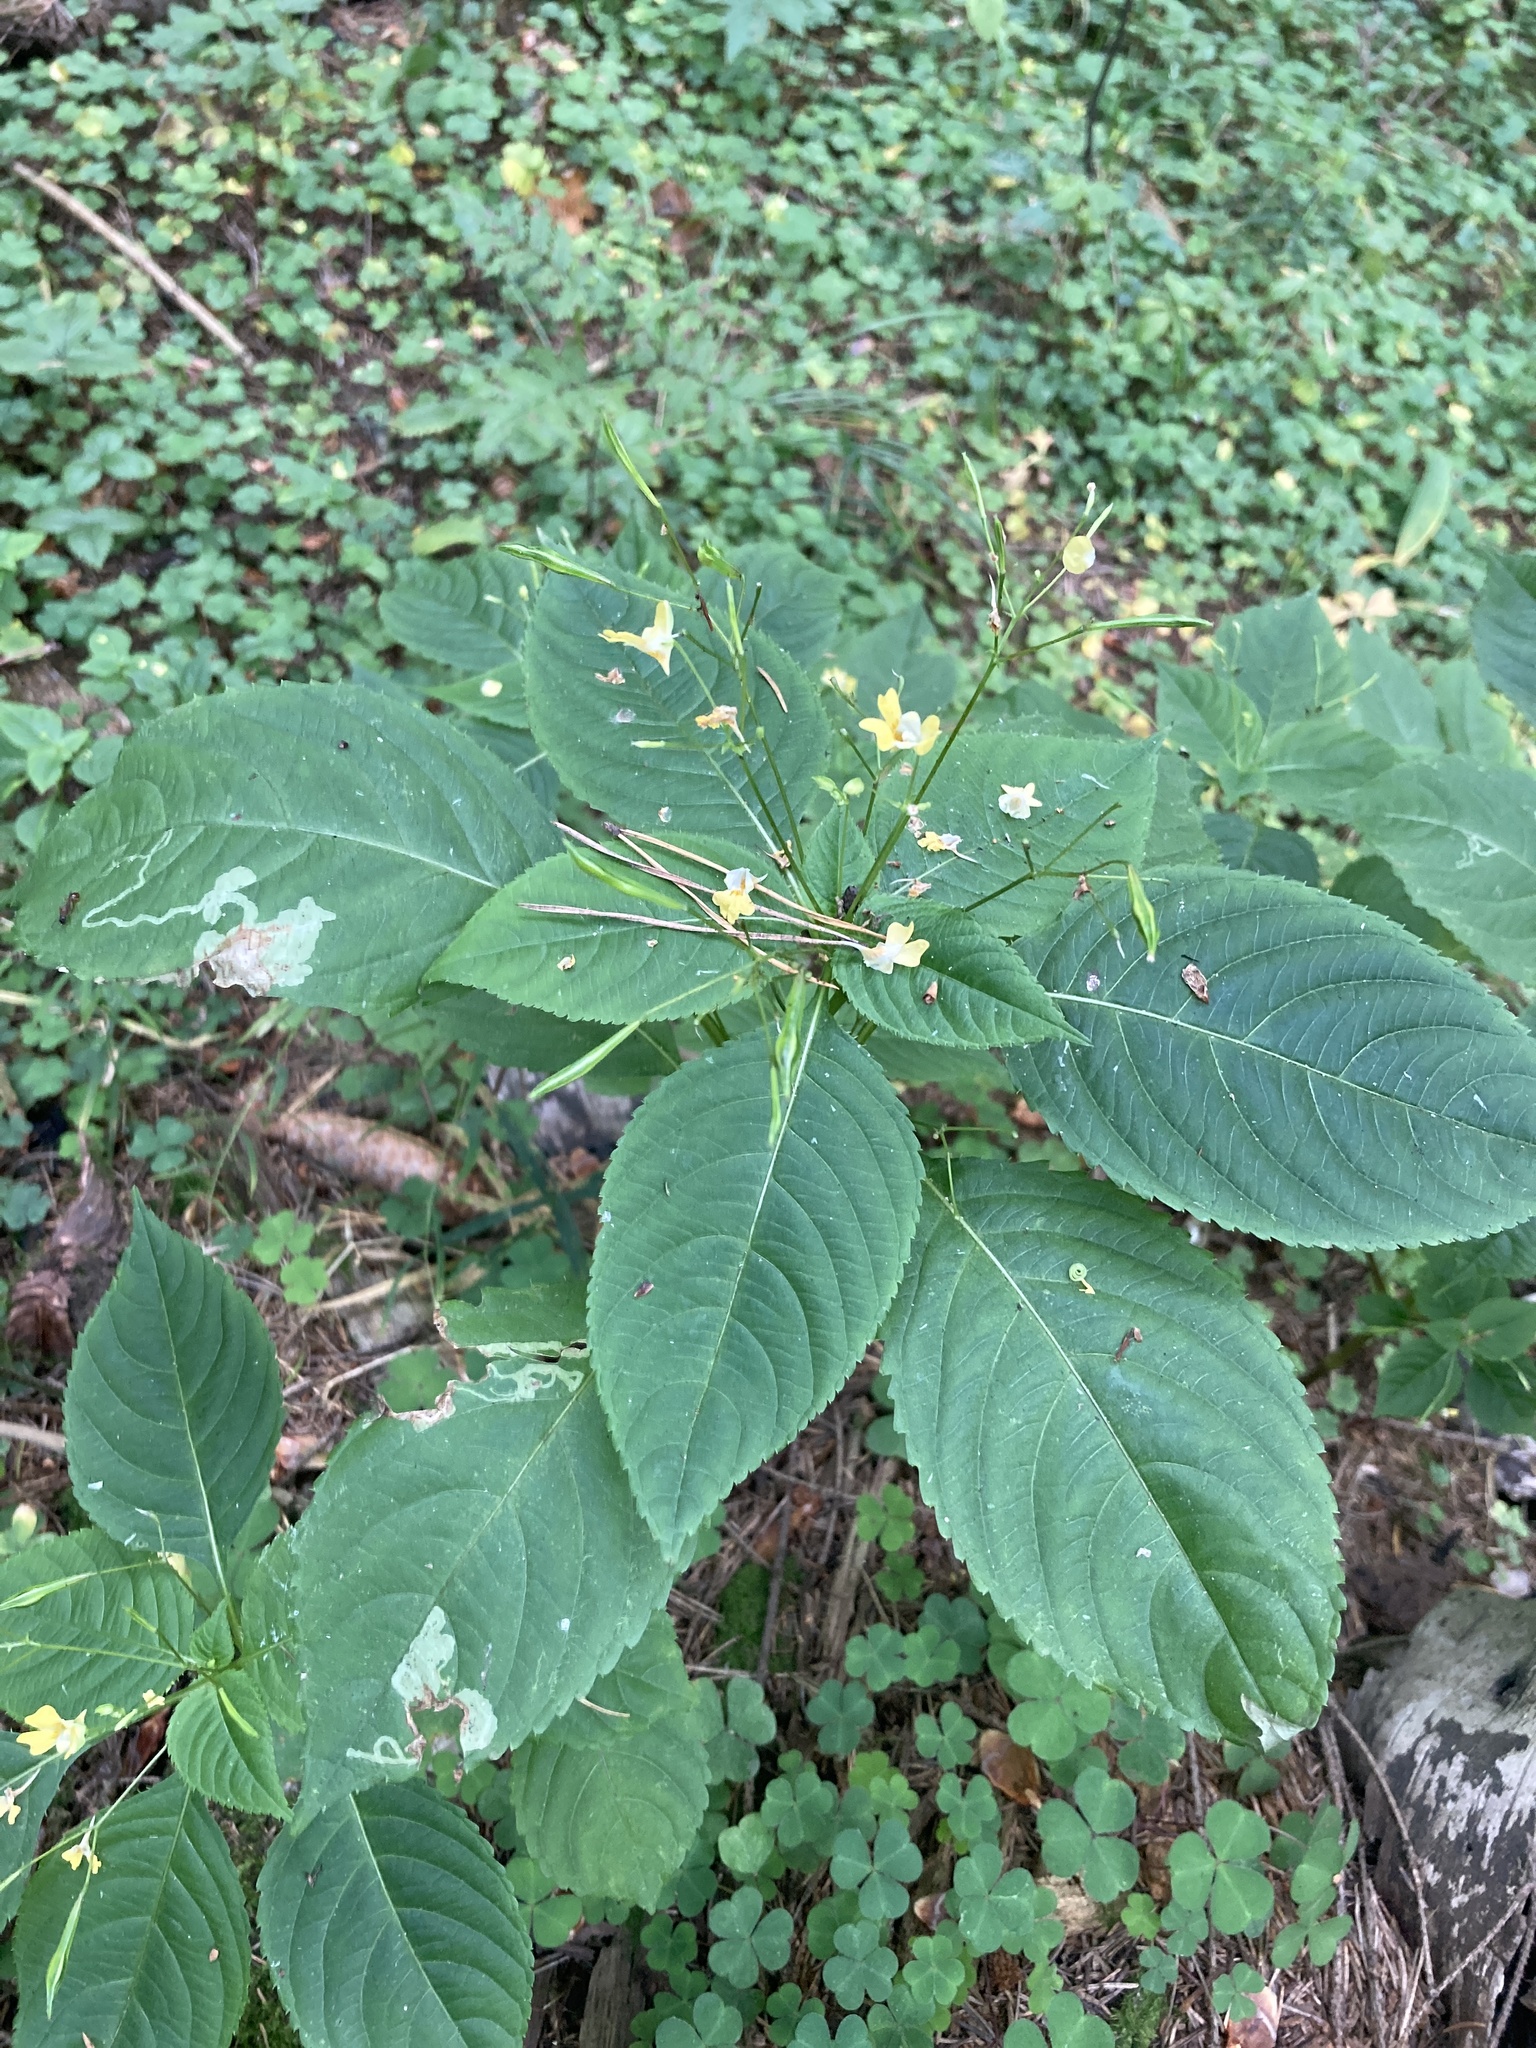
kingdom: Plantae
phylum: Tracheophyta
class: Magnoliopsida
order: Ericales
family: Balsaminaceae
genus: Impatiens
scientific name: Impatiens parviflora
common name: Small balsam
